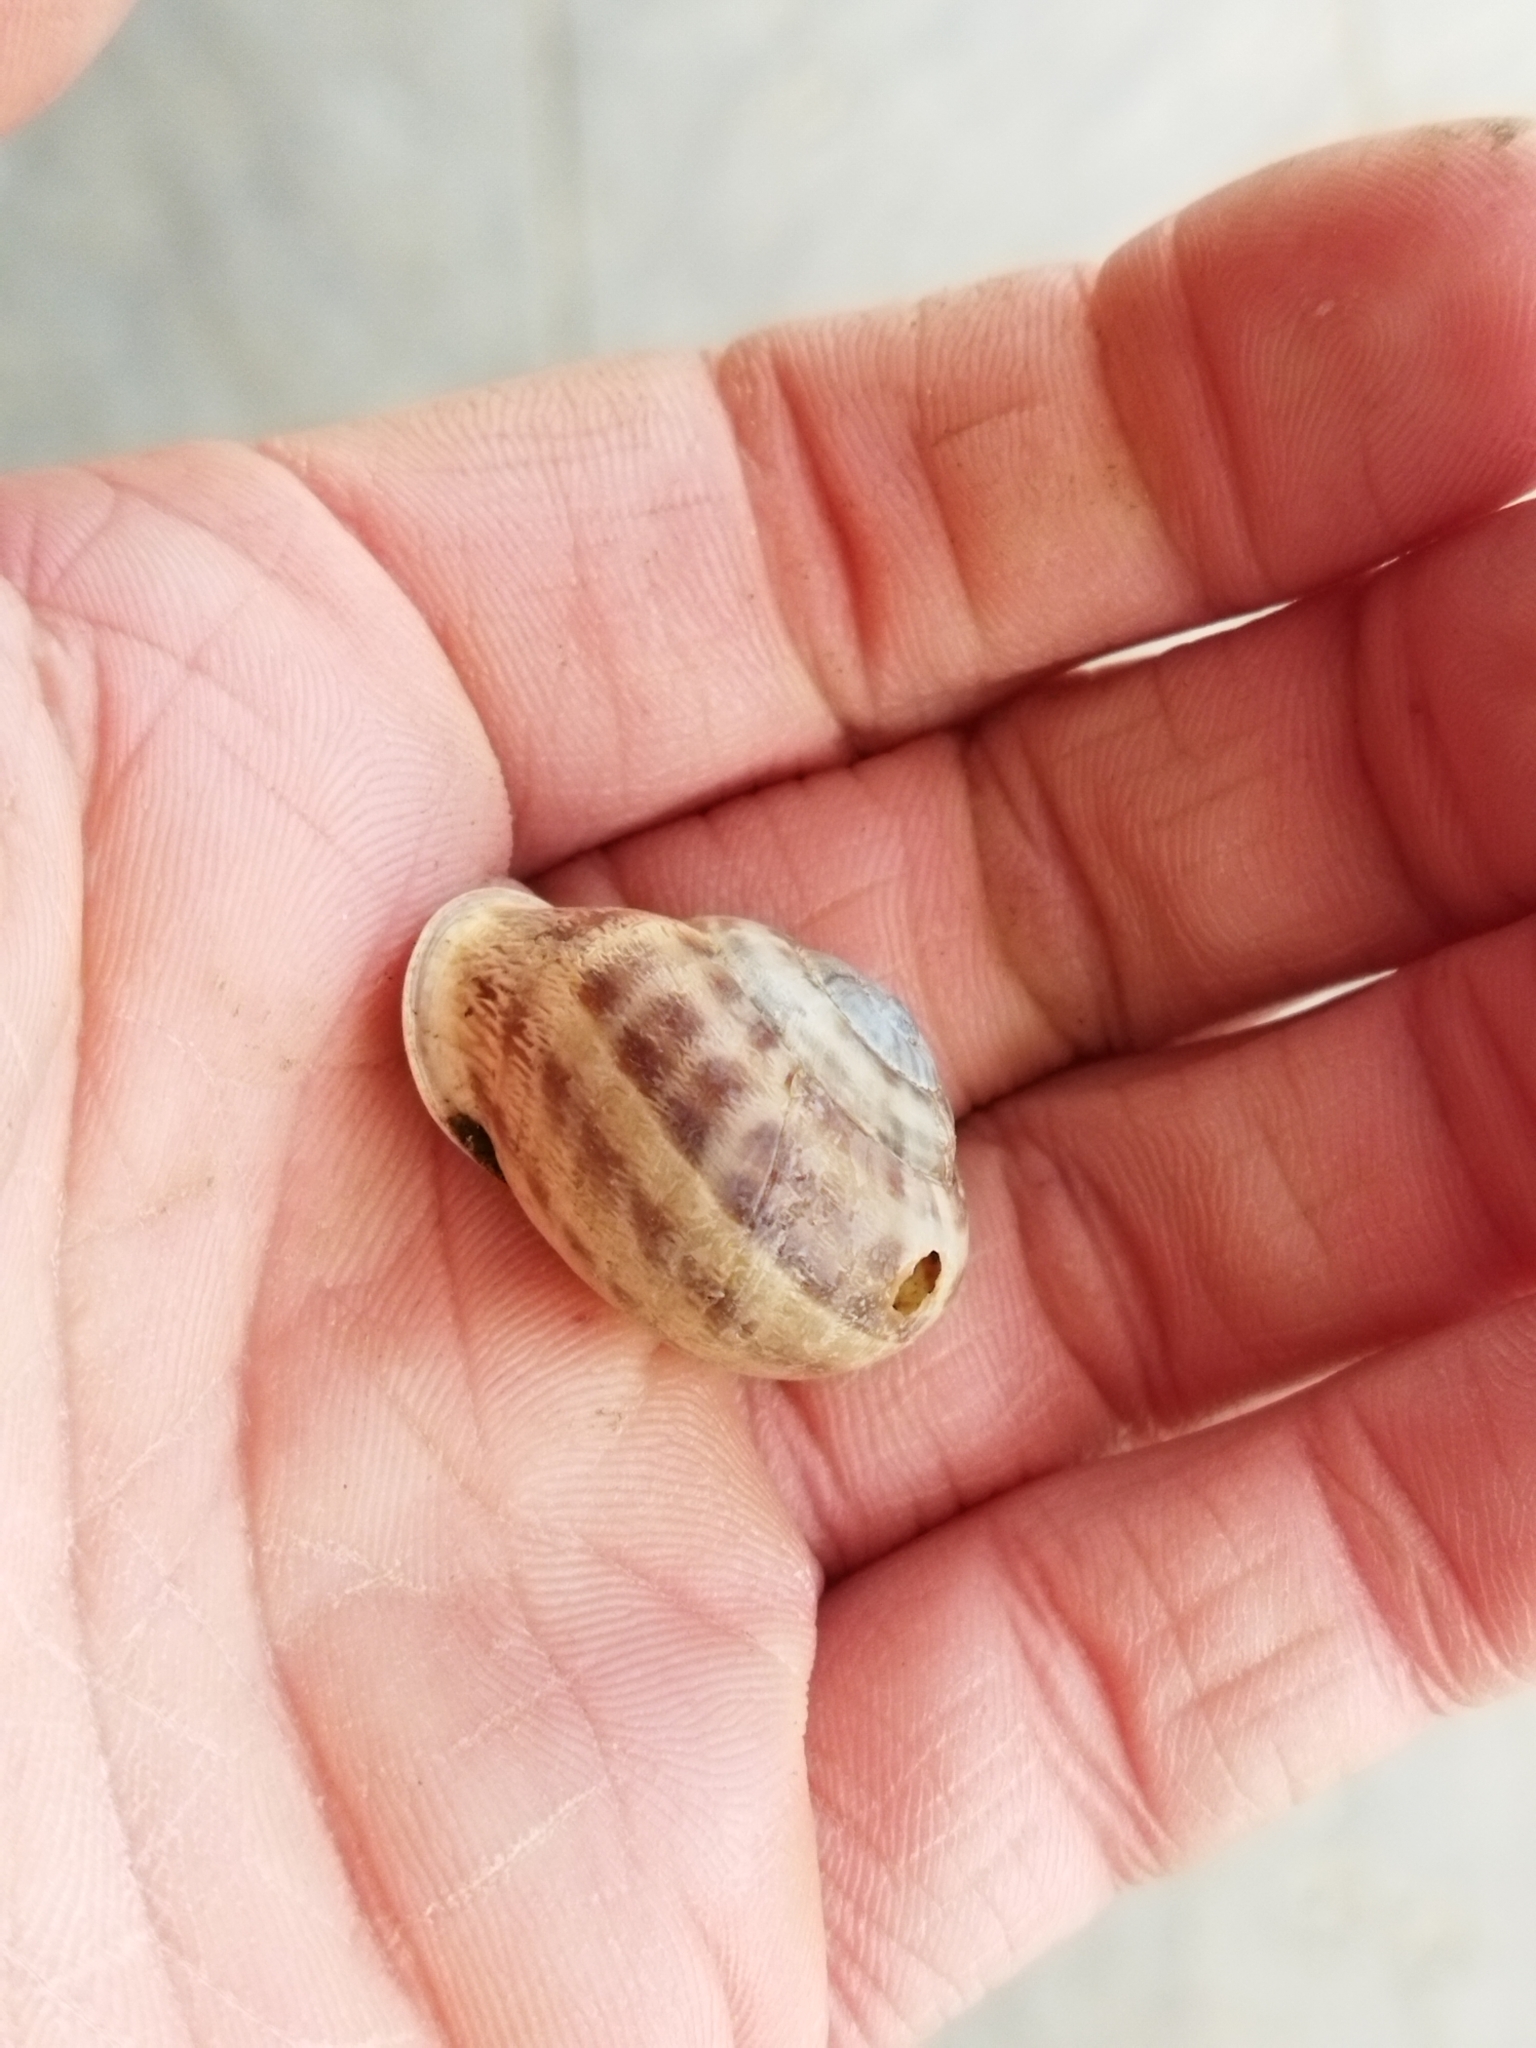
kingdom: Animalia
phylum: Mollusca
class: Gastropoda
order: Stylommatophora
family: Helicidae
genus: Eobania
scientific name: Eobania vermiculata
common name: Chocolateband snail
